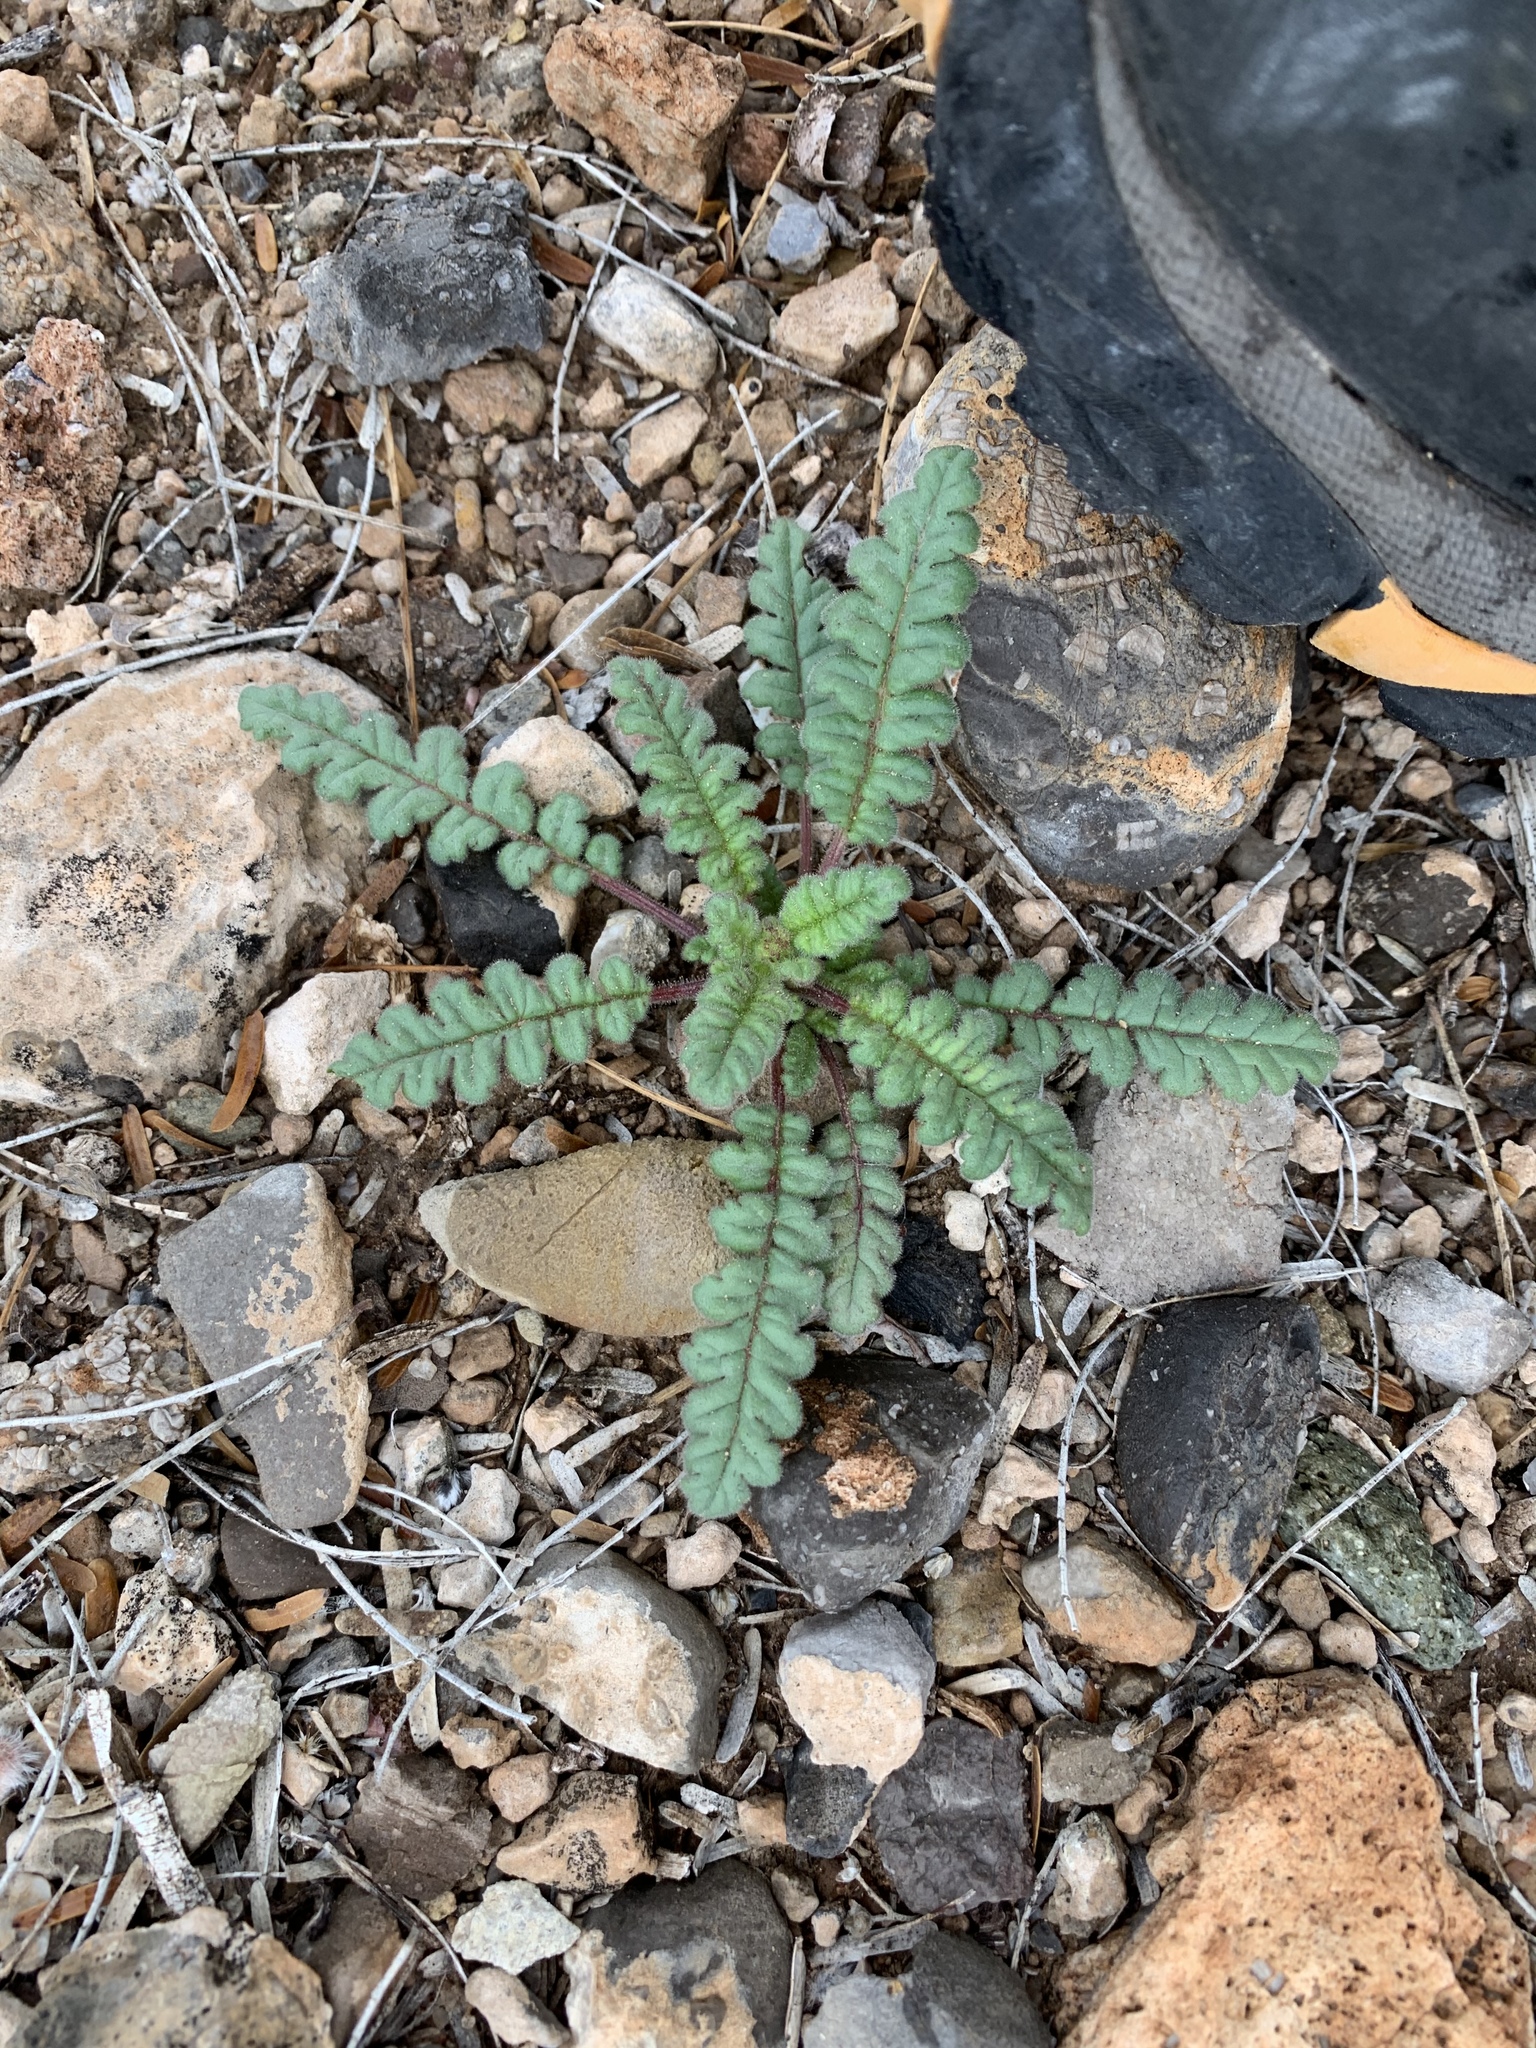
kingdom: Plantae
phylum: Tracheophyta
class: Magnoliopsida
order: Boraginales
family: Hydrophyllaceae
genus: Phacelia
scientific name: Phacelia coerulea
